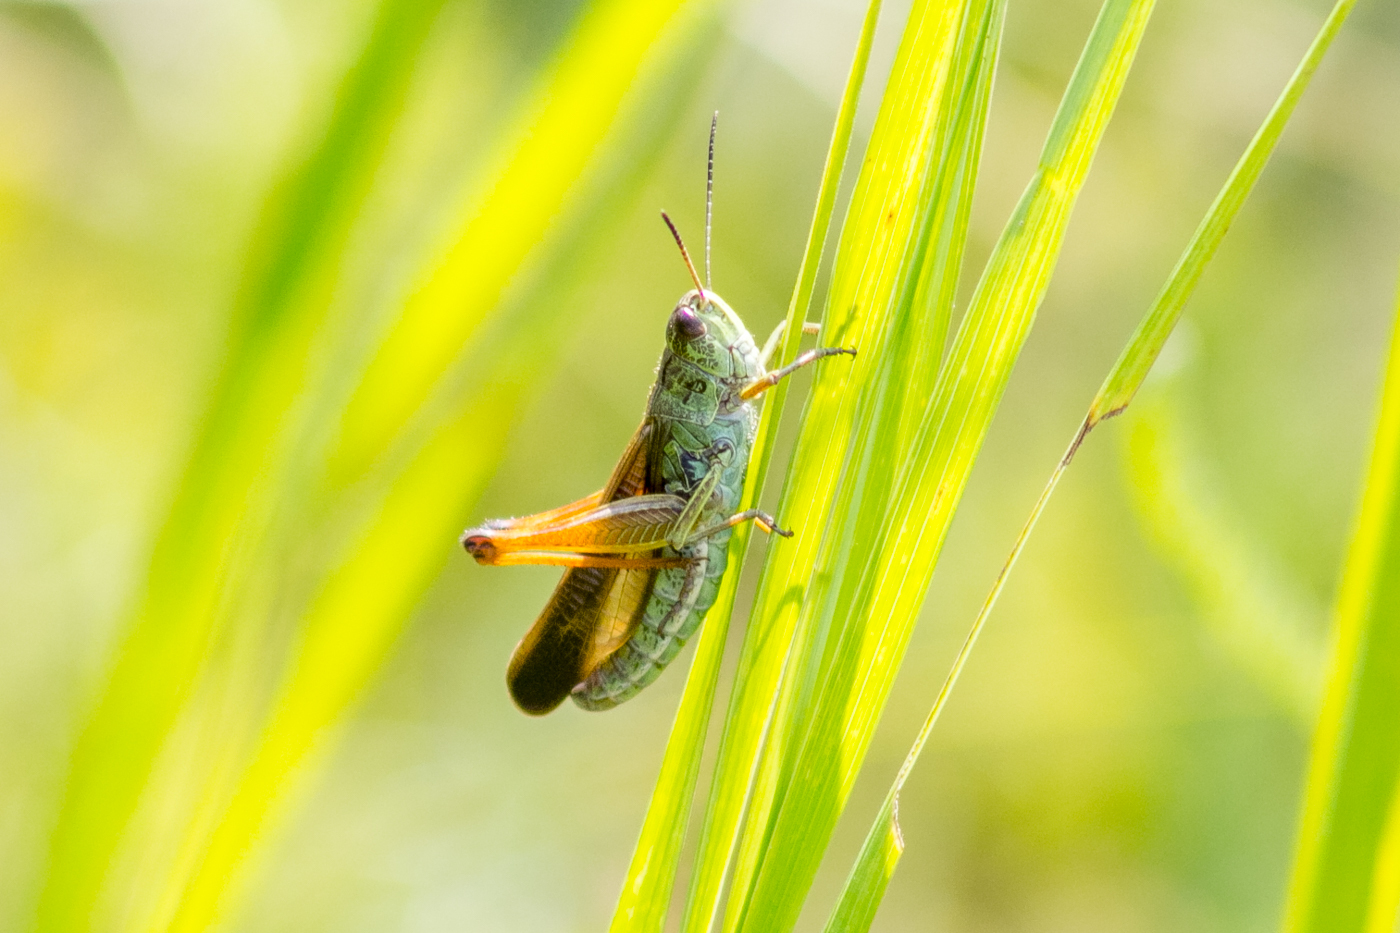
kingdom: Animalia
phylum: Arthropoda
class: Insecta
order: Orthoptera
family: Acrididae
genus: Stauroderus
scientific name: Stauroderus scalaris
